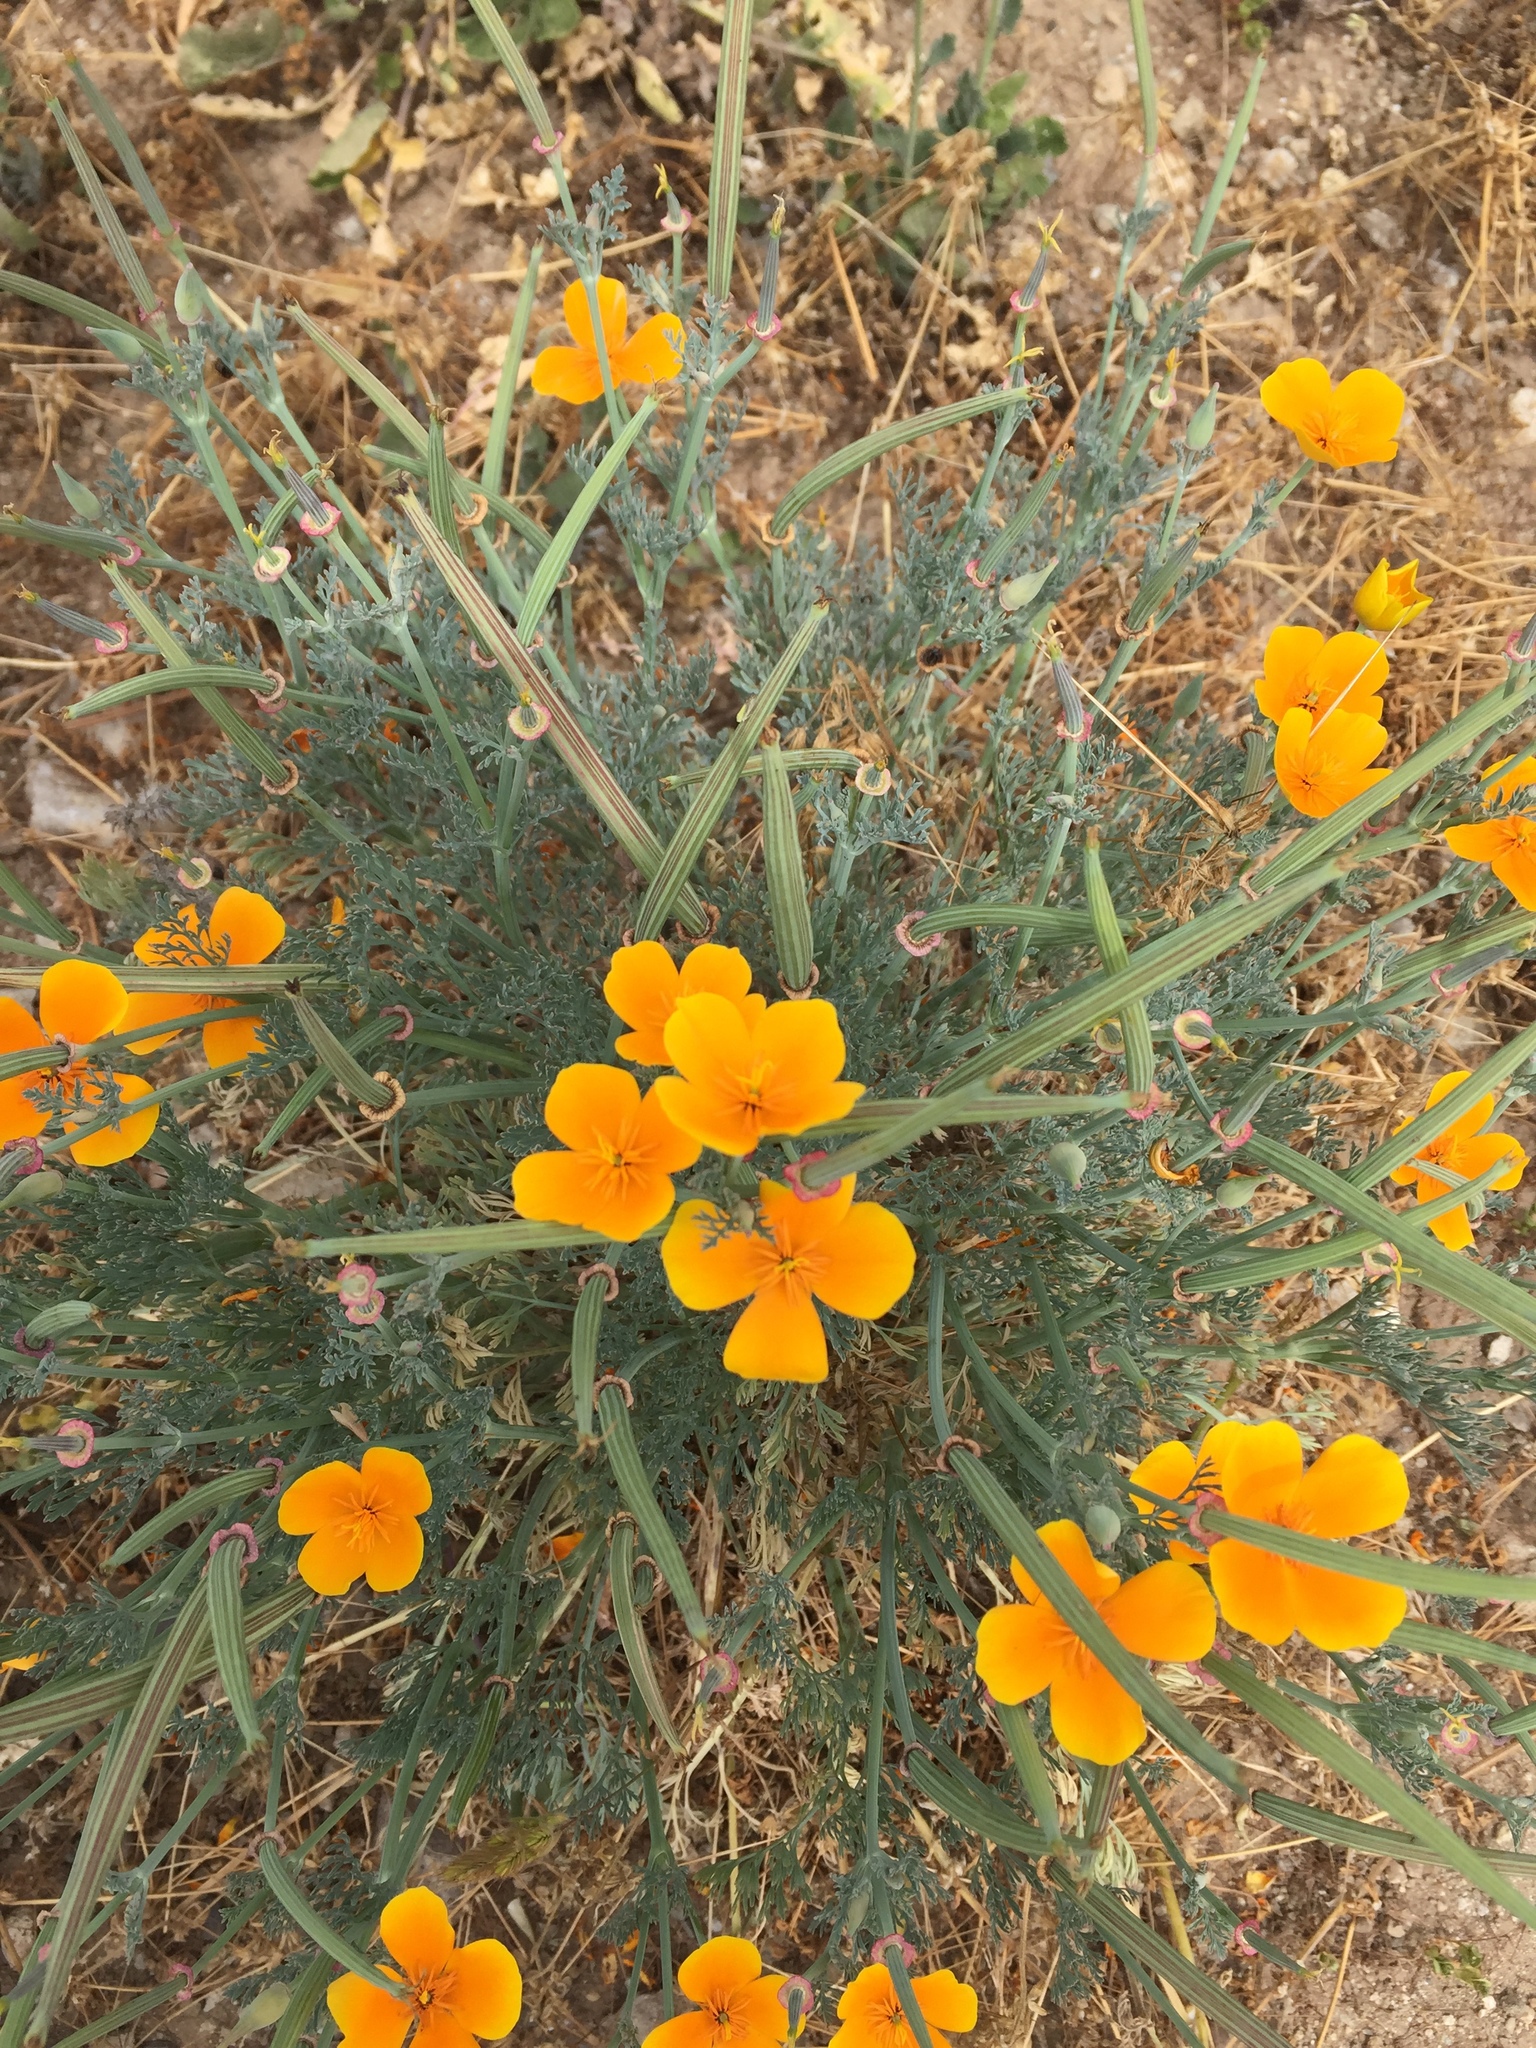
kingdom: Plantae
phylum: Tracheophyta
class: Magnoliopsida
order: Ranunculales
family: Papaveraceae
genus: Eschscholzia
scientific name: Eschscholzia californica
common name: California poppy
